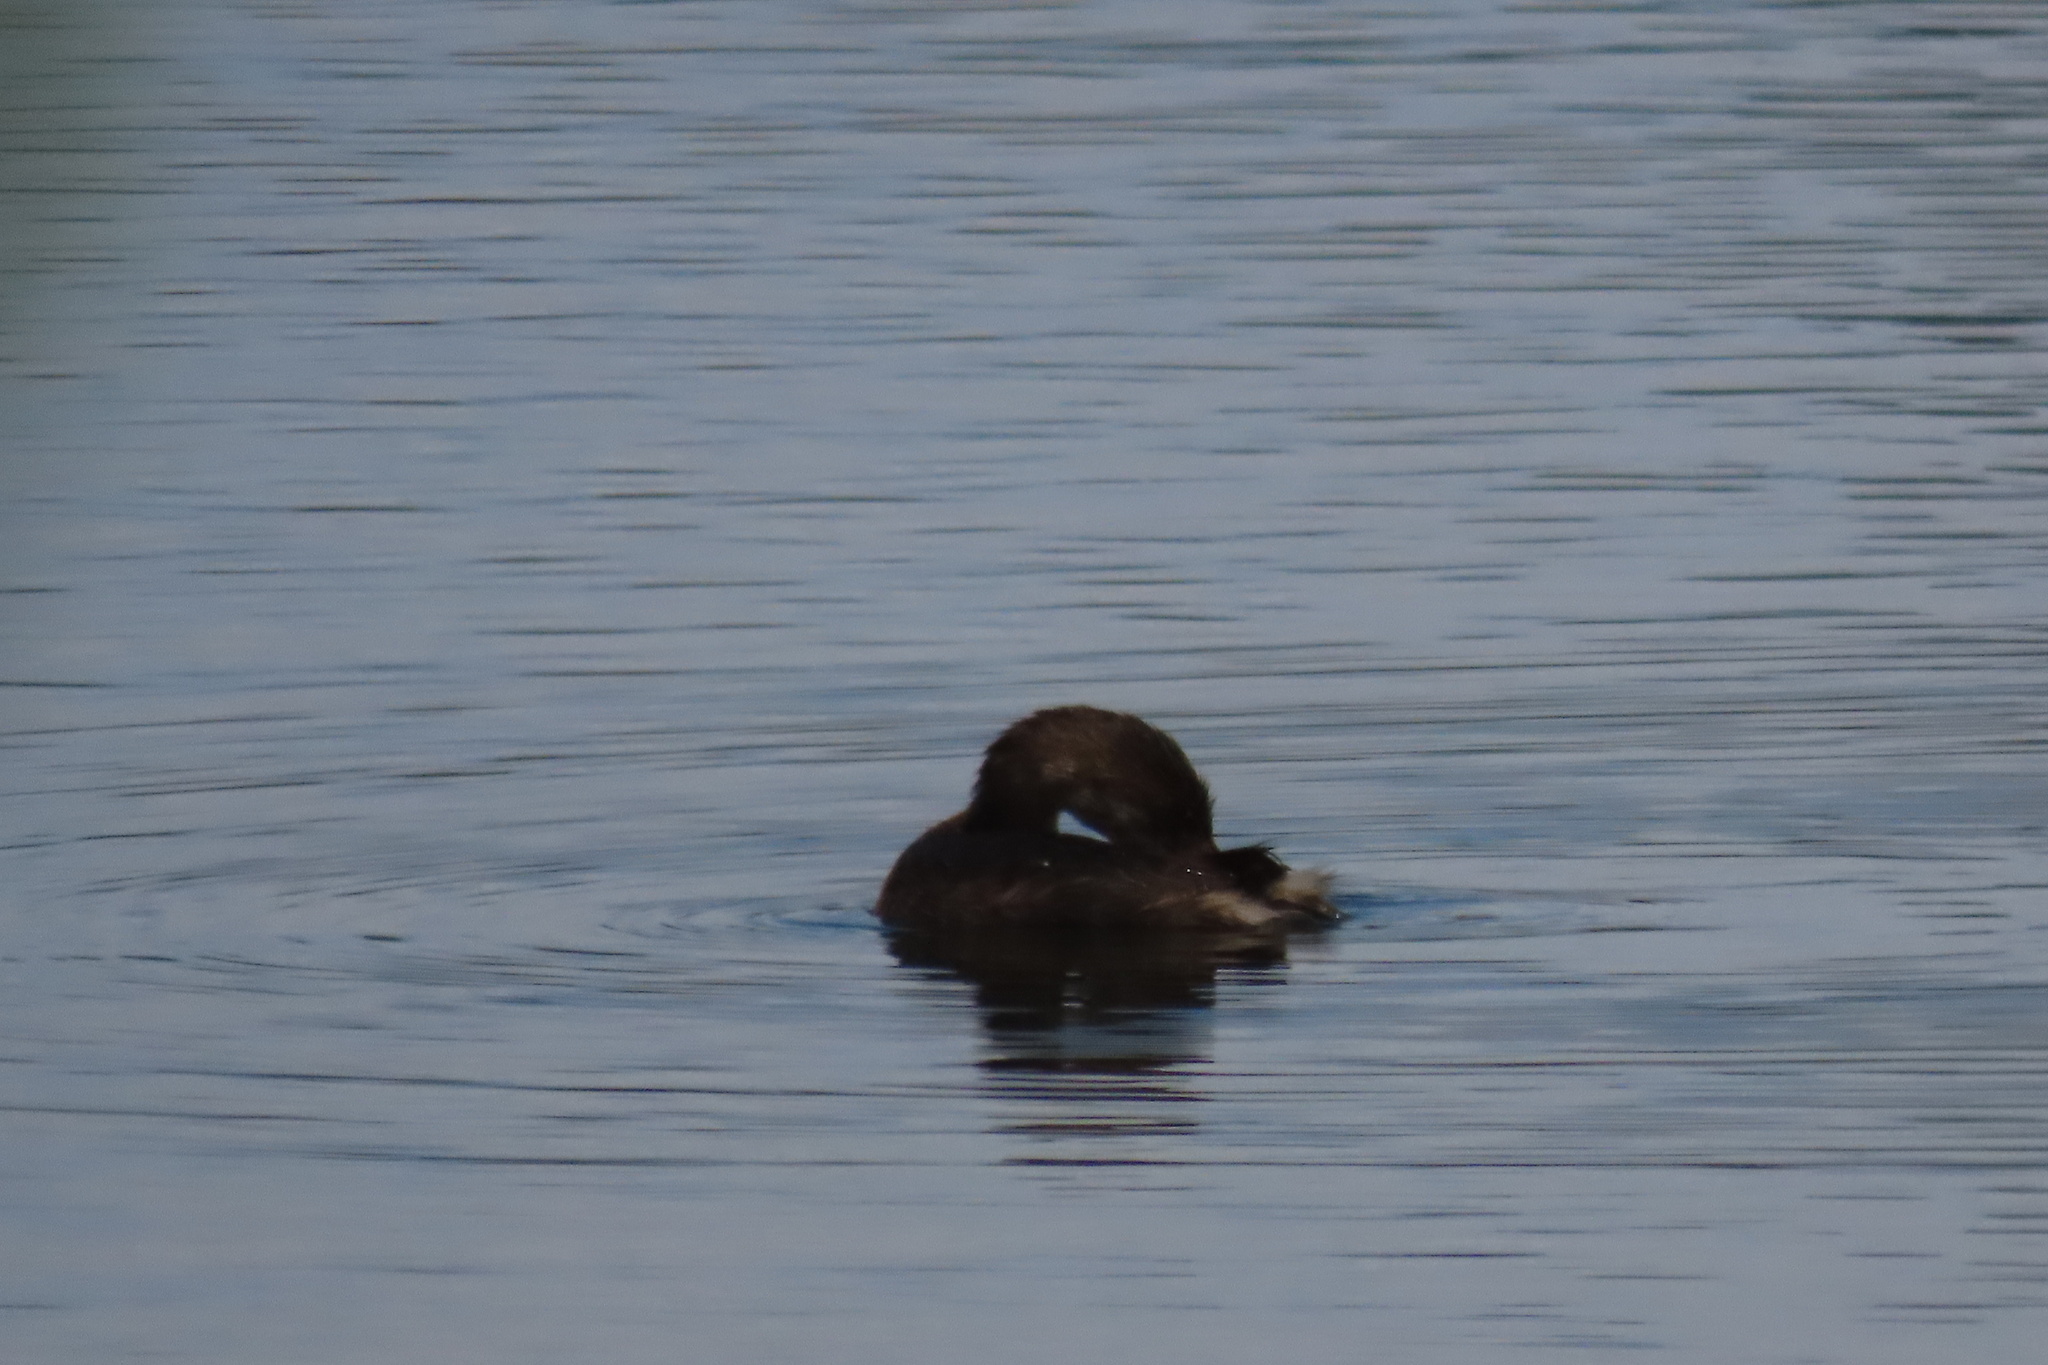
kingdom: Animalia
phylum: Chordata
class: Aves
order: Podicipediformes
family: Podicipedidae
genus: Podilymbus
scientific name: Podilymbus podiceps
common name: Pied-billed grebe
